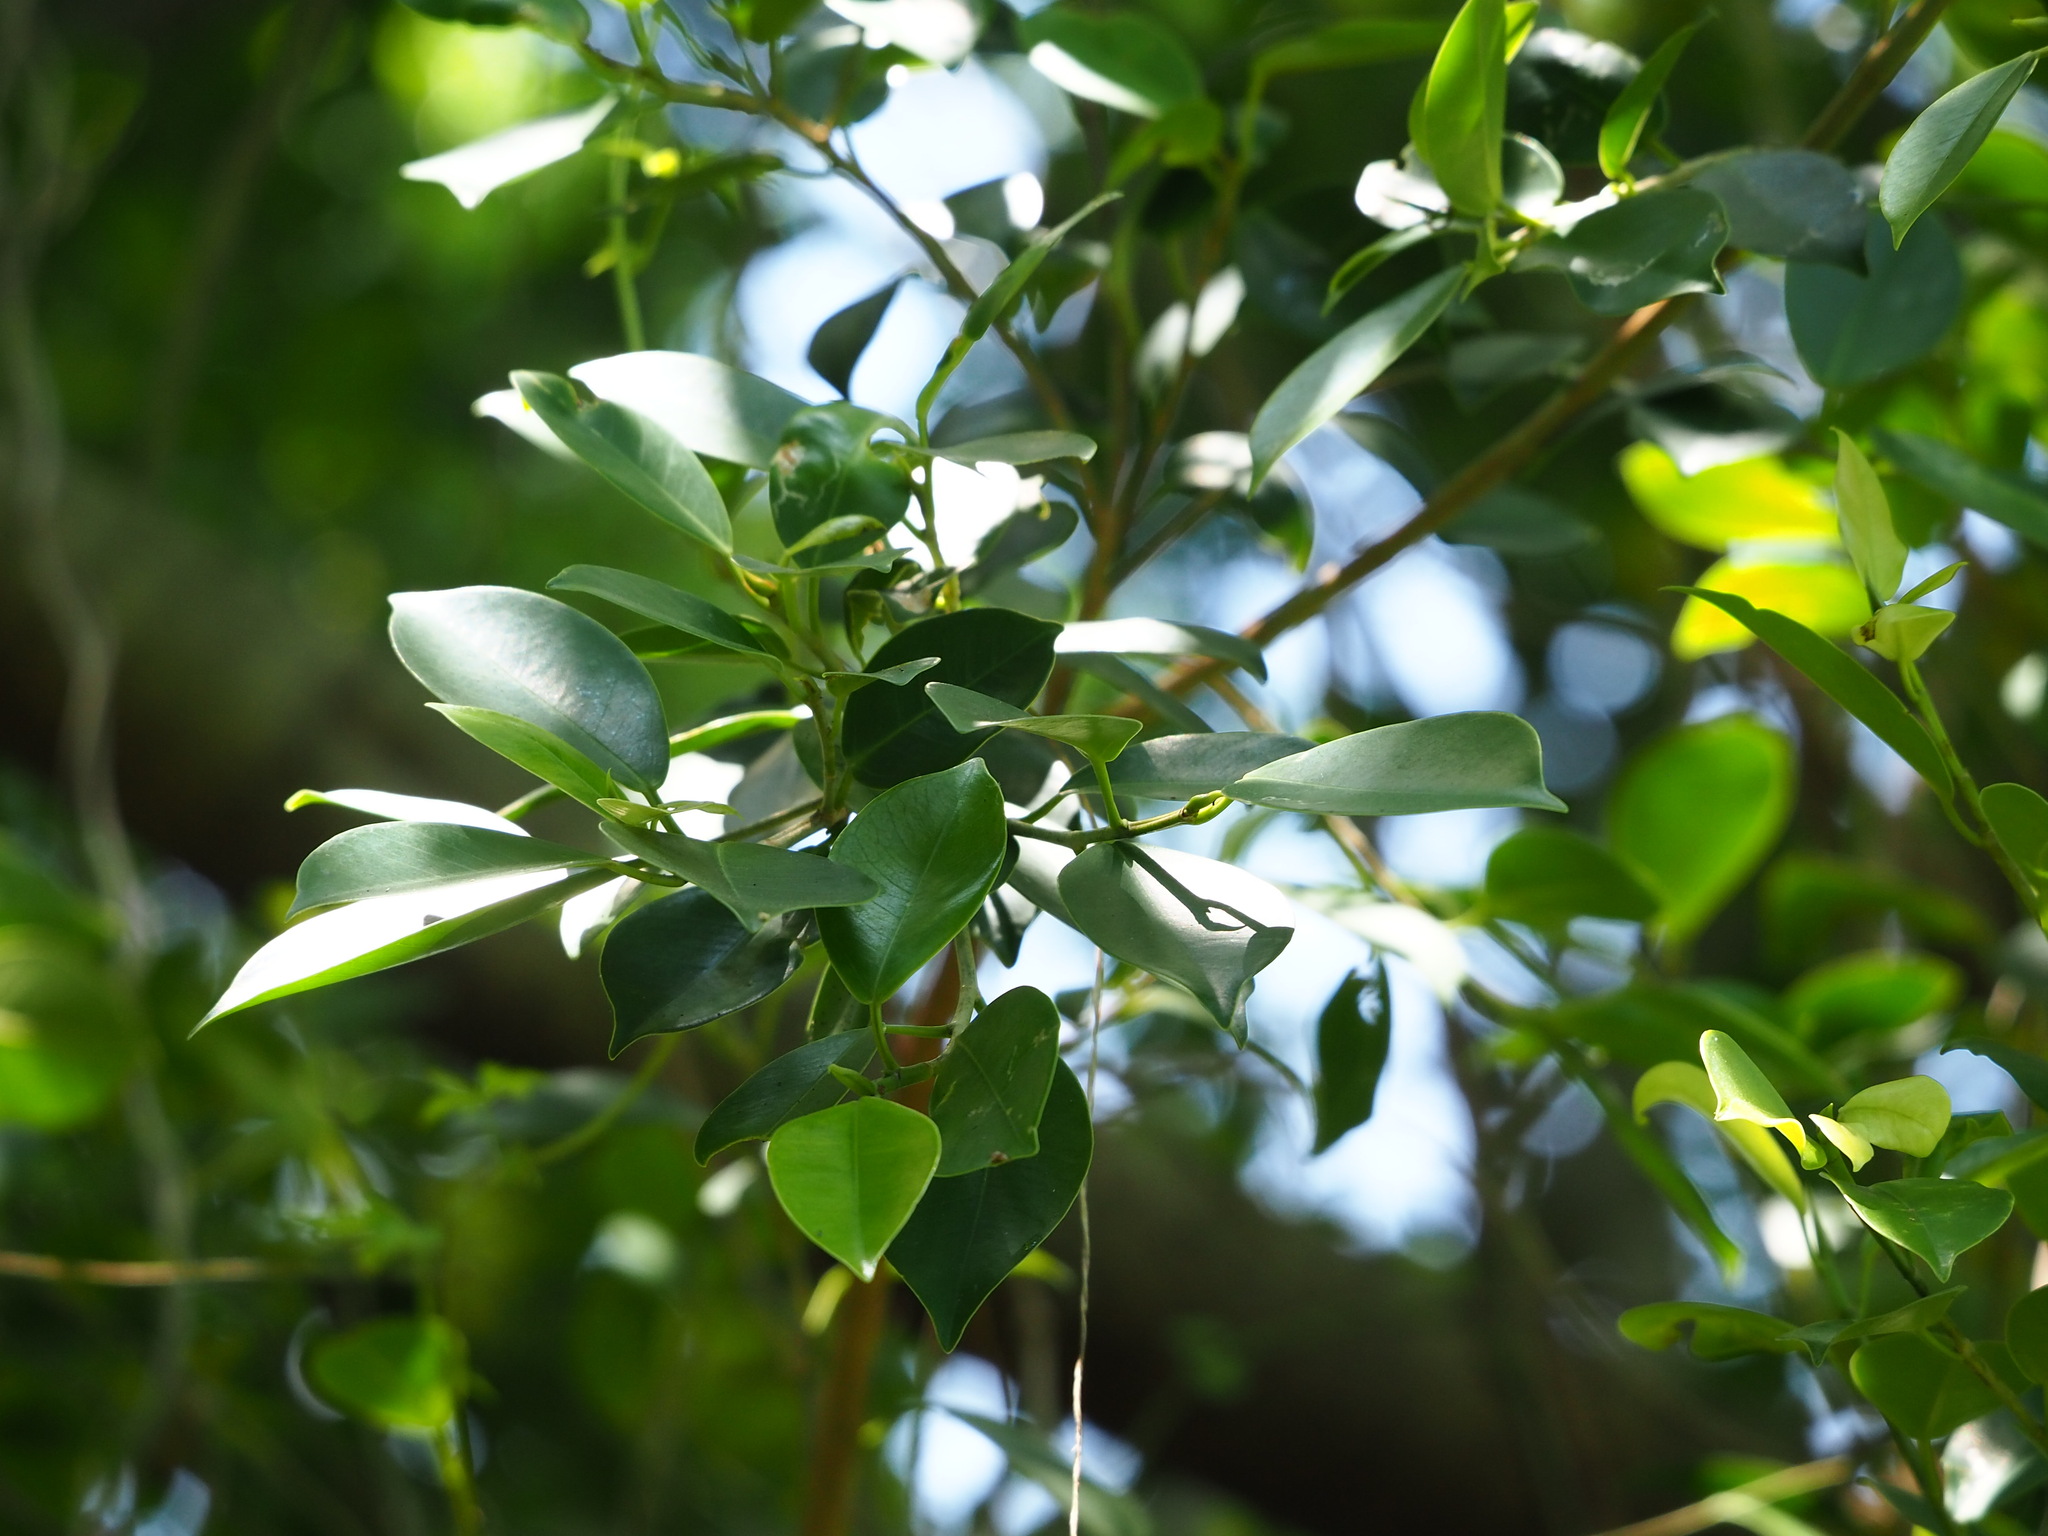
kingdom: Plantae
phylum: Tracheophyta
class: Magnoliopsida
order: Rosales
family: Moraceae
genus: Ficus
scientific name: Ficus microcarpa
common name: Chinese banyan
